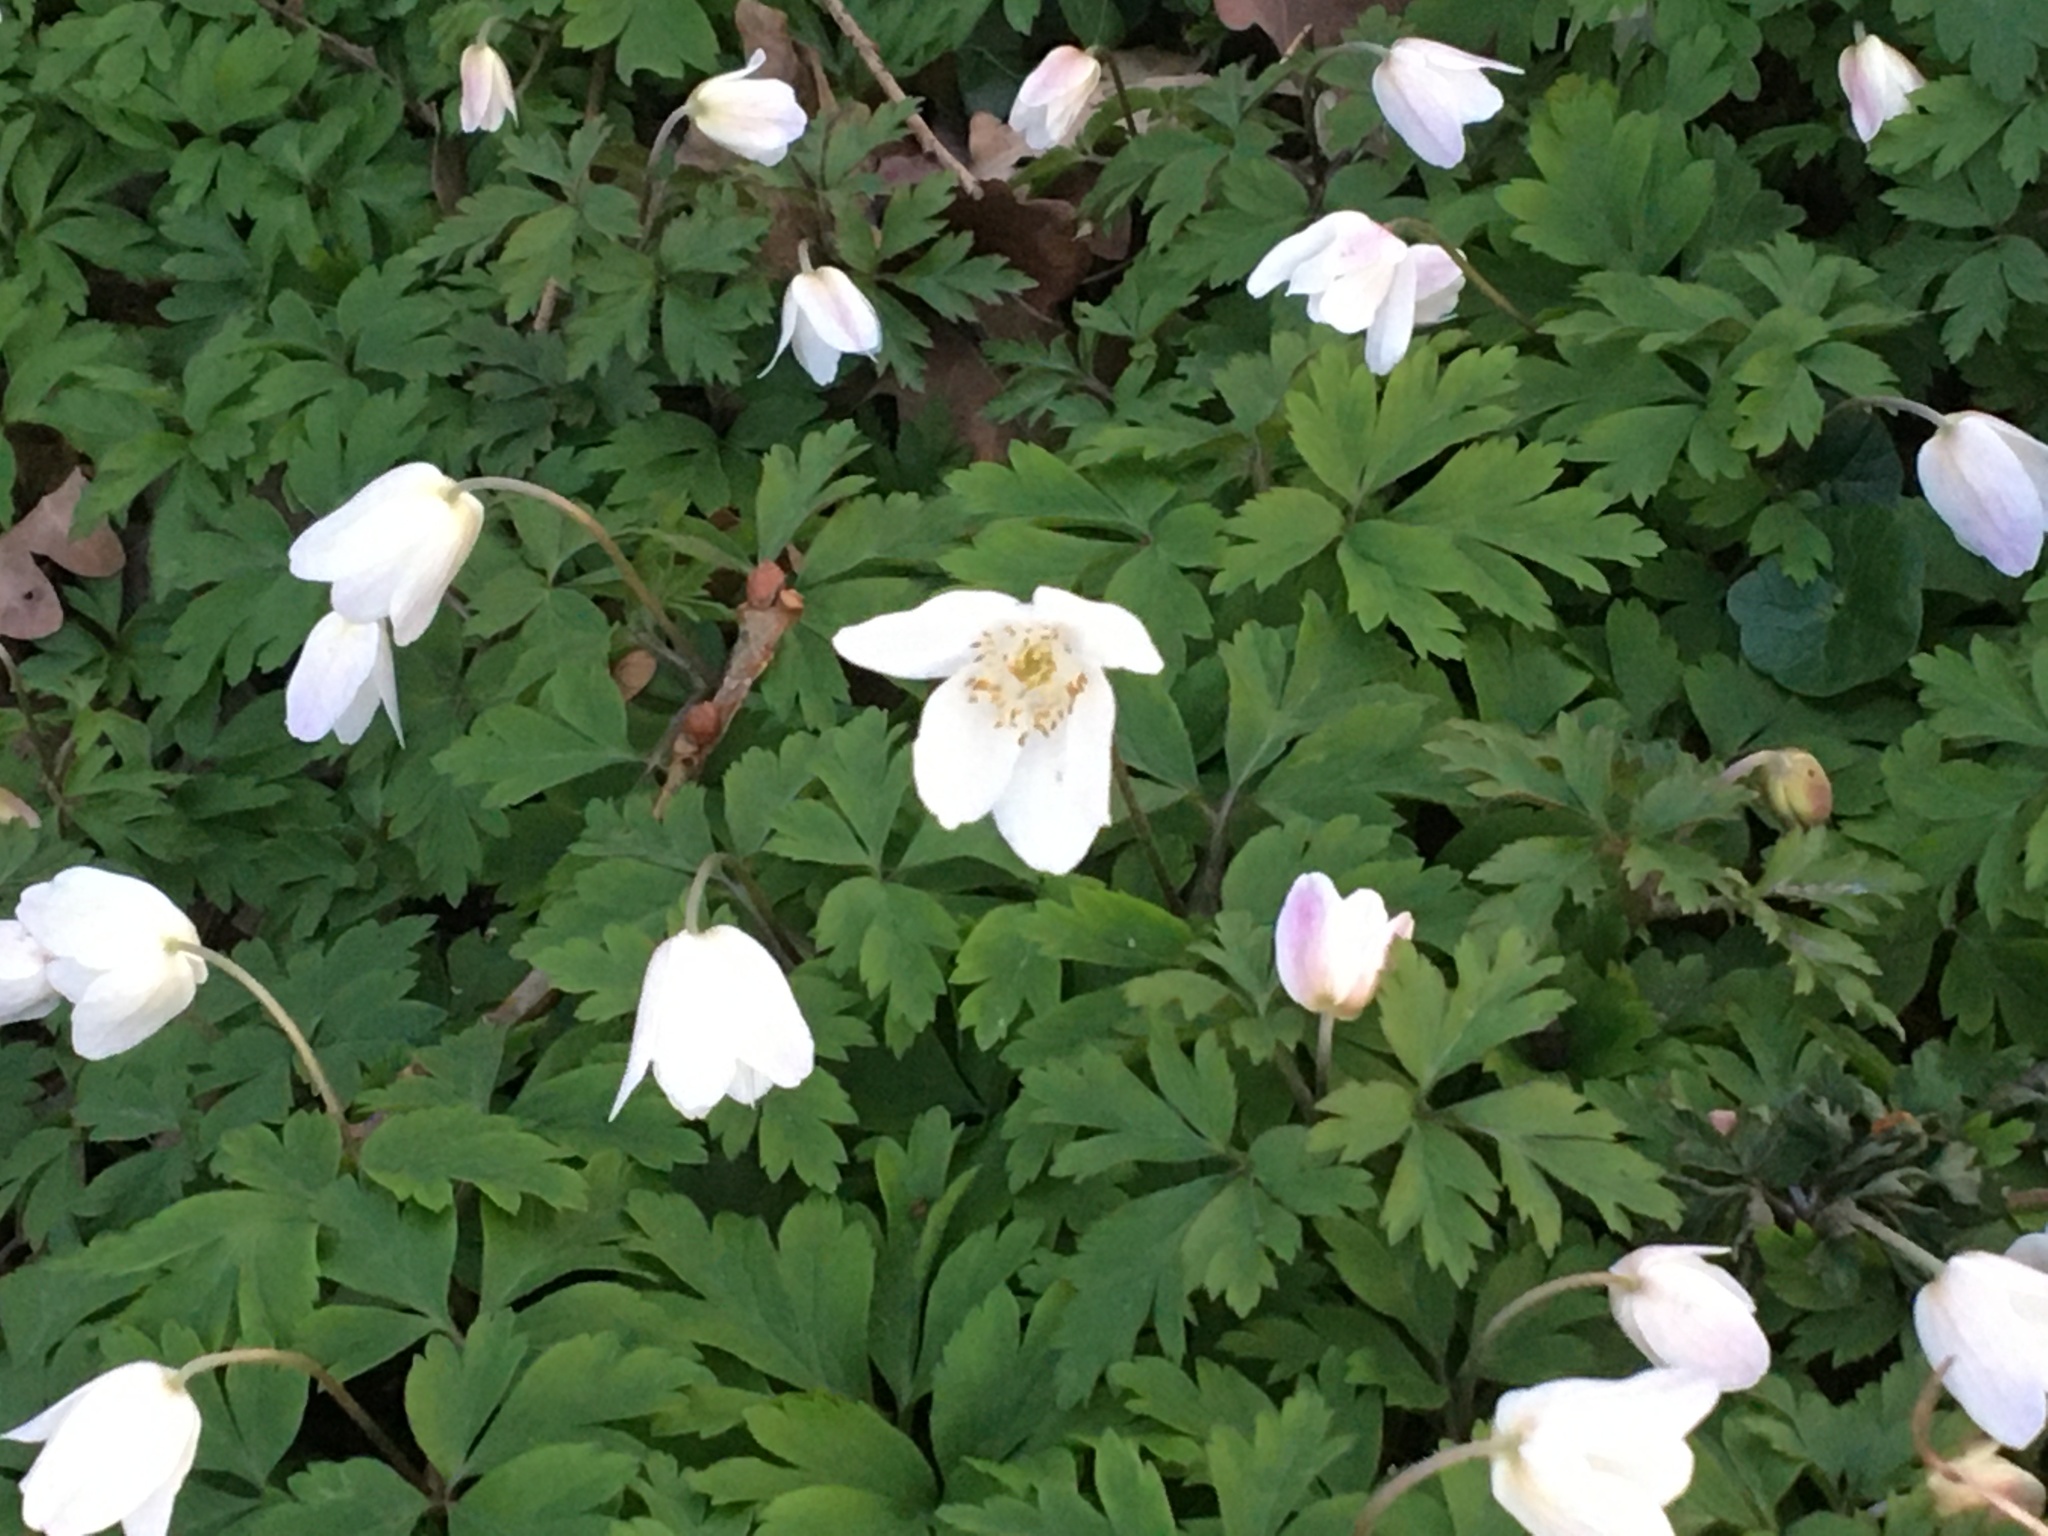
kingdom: Plantae
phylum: Tracheophyta
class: Magnoliopsida
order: Ranunculales
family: Ranunculaceae
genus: Anemone
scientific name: Anemone nemorosa
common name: Wood anemone
